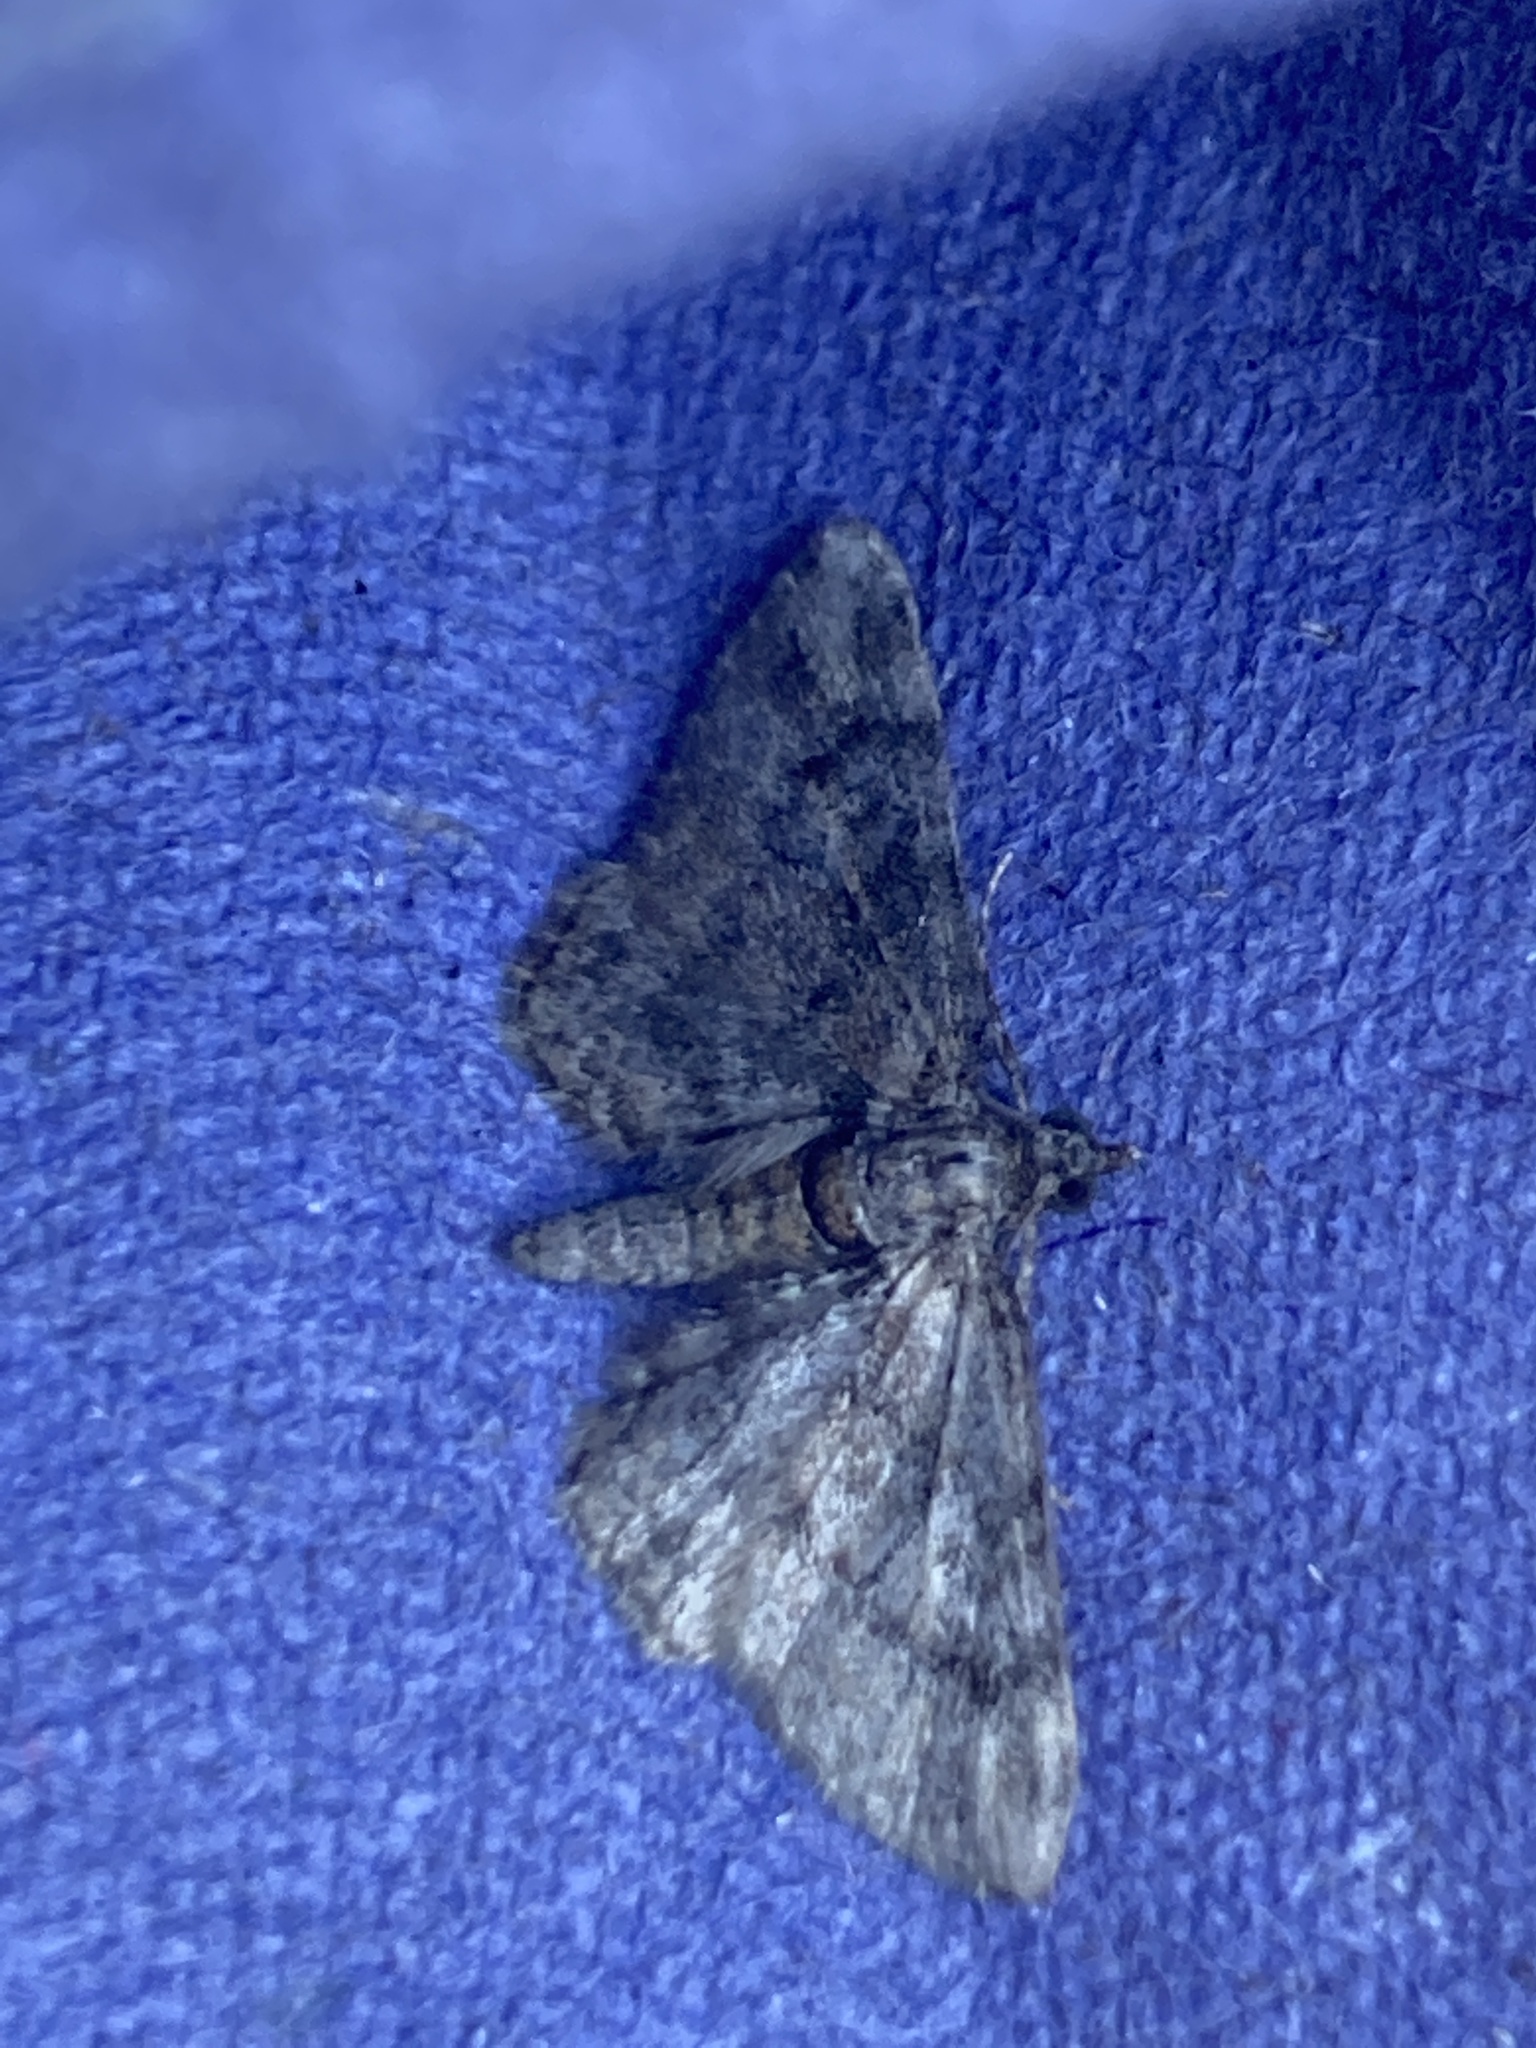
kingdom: Animalia
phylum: Arthropoda
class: Insecta
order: Lepidoptera
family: Geometridae
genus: Gymnoscelis
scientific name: Gymnoscelis rufifasciata
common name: Double-striped pug
